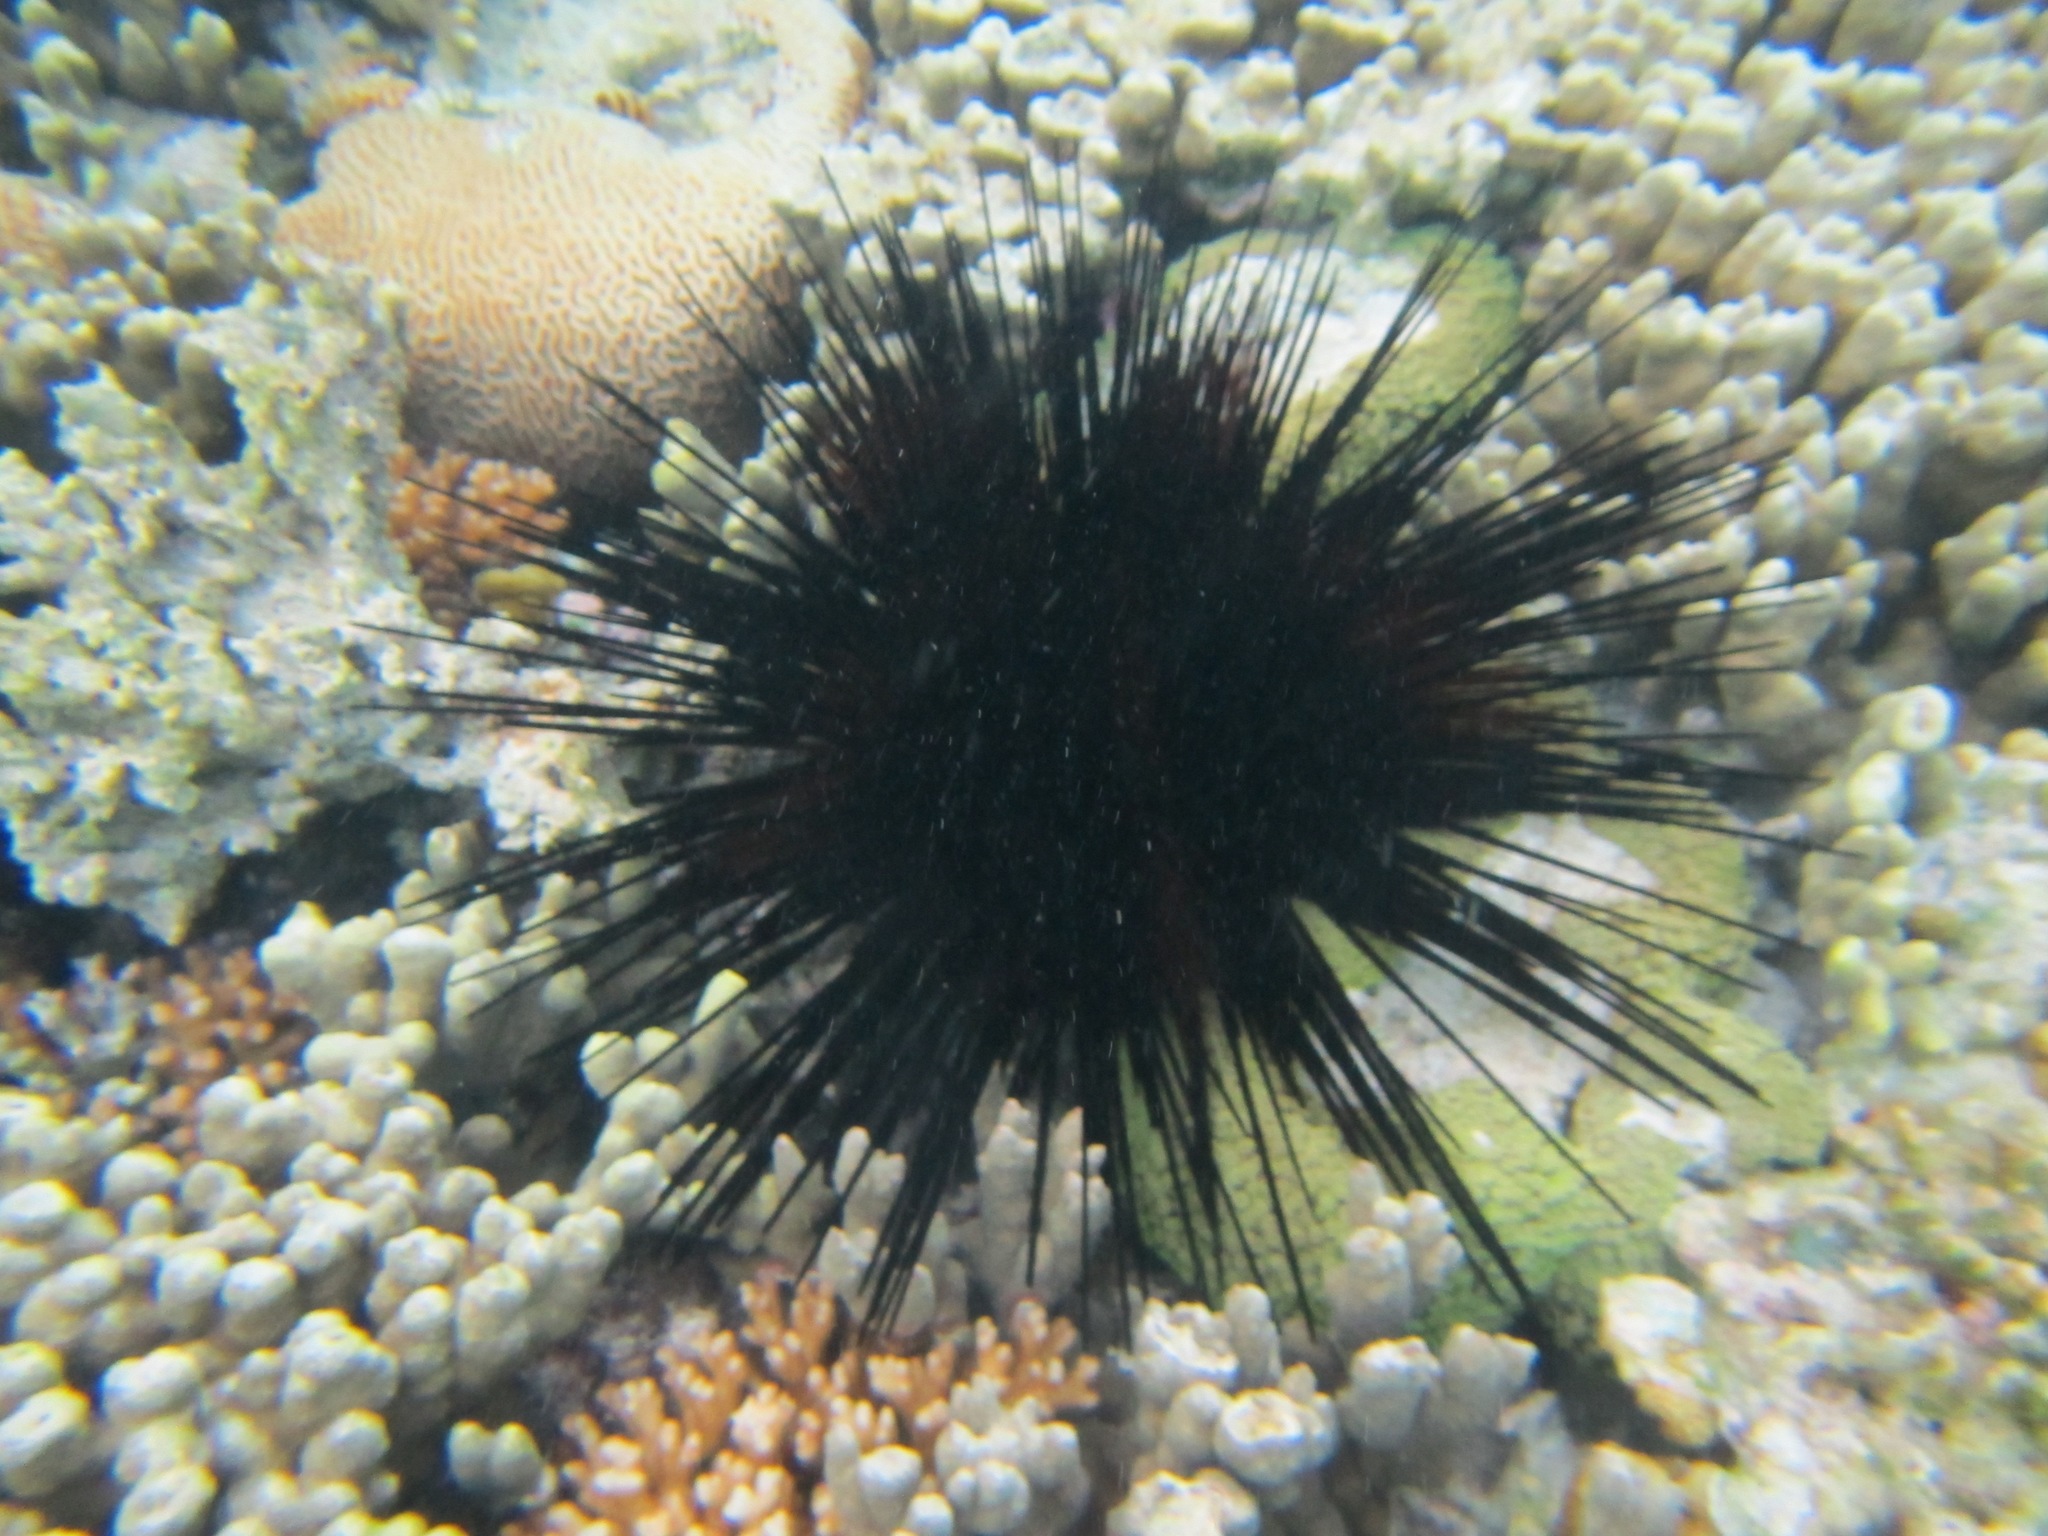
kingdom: Animalia
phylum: Echinodermata
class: Echinoidea
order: Diadematoida
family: Diadematidae
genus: Echinothrix
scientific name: Echinothrix calamaris
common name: Banded sea urchin
